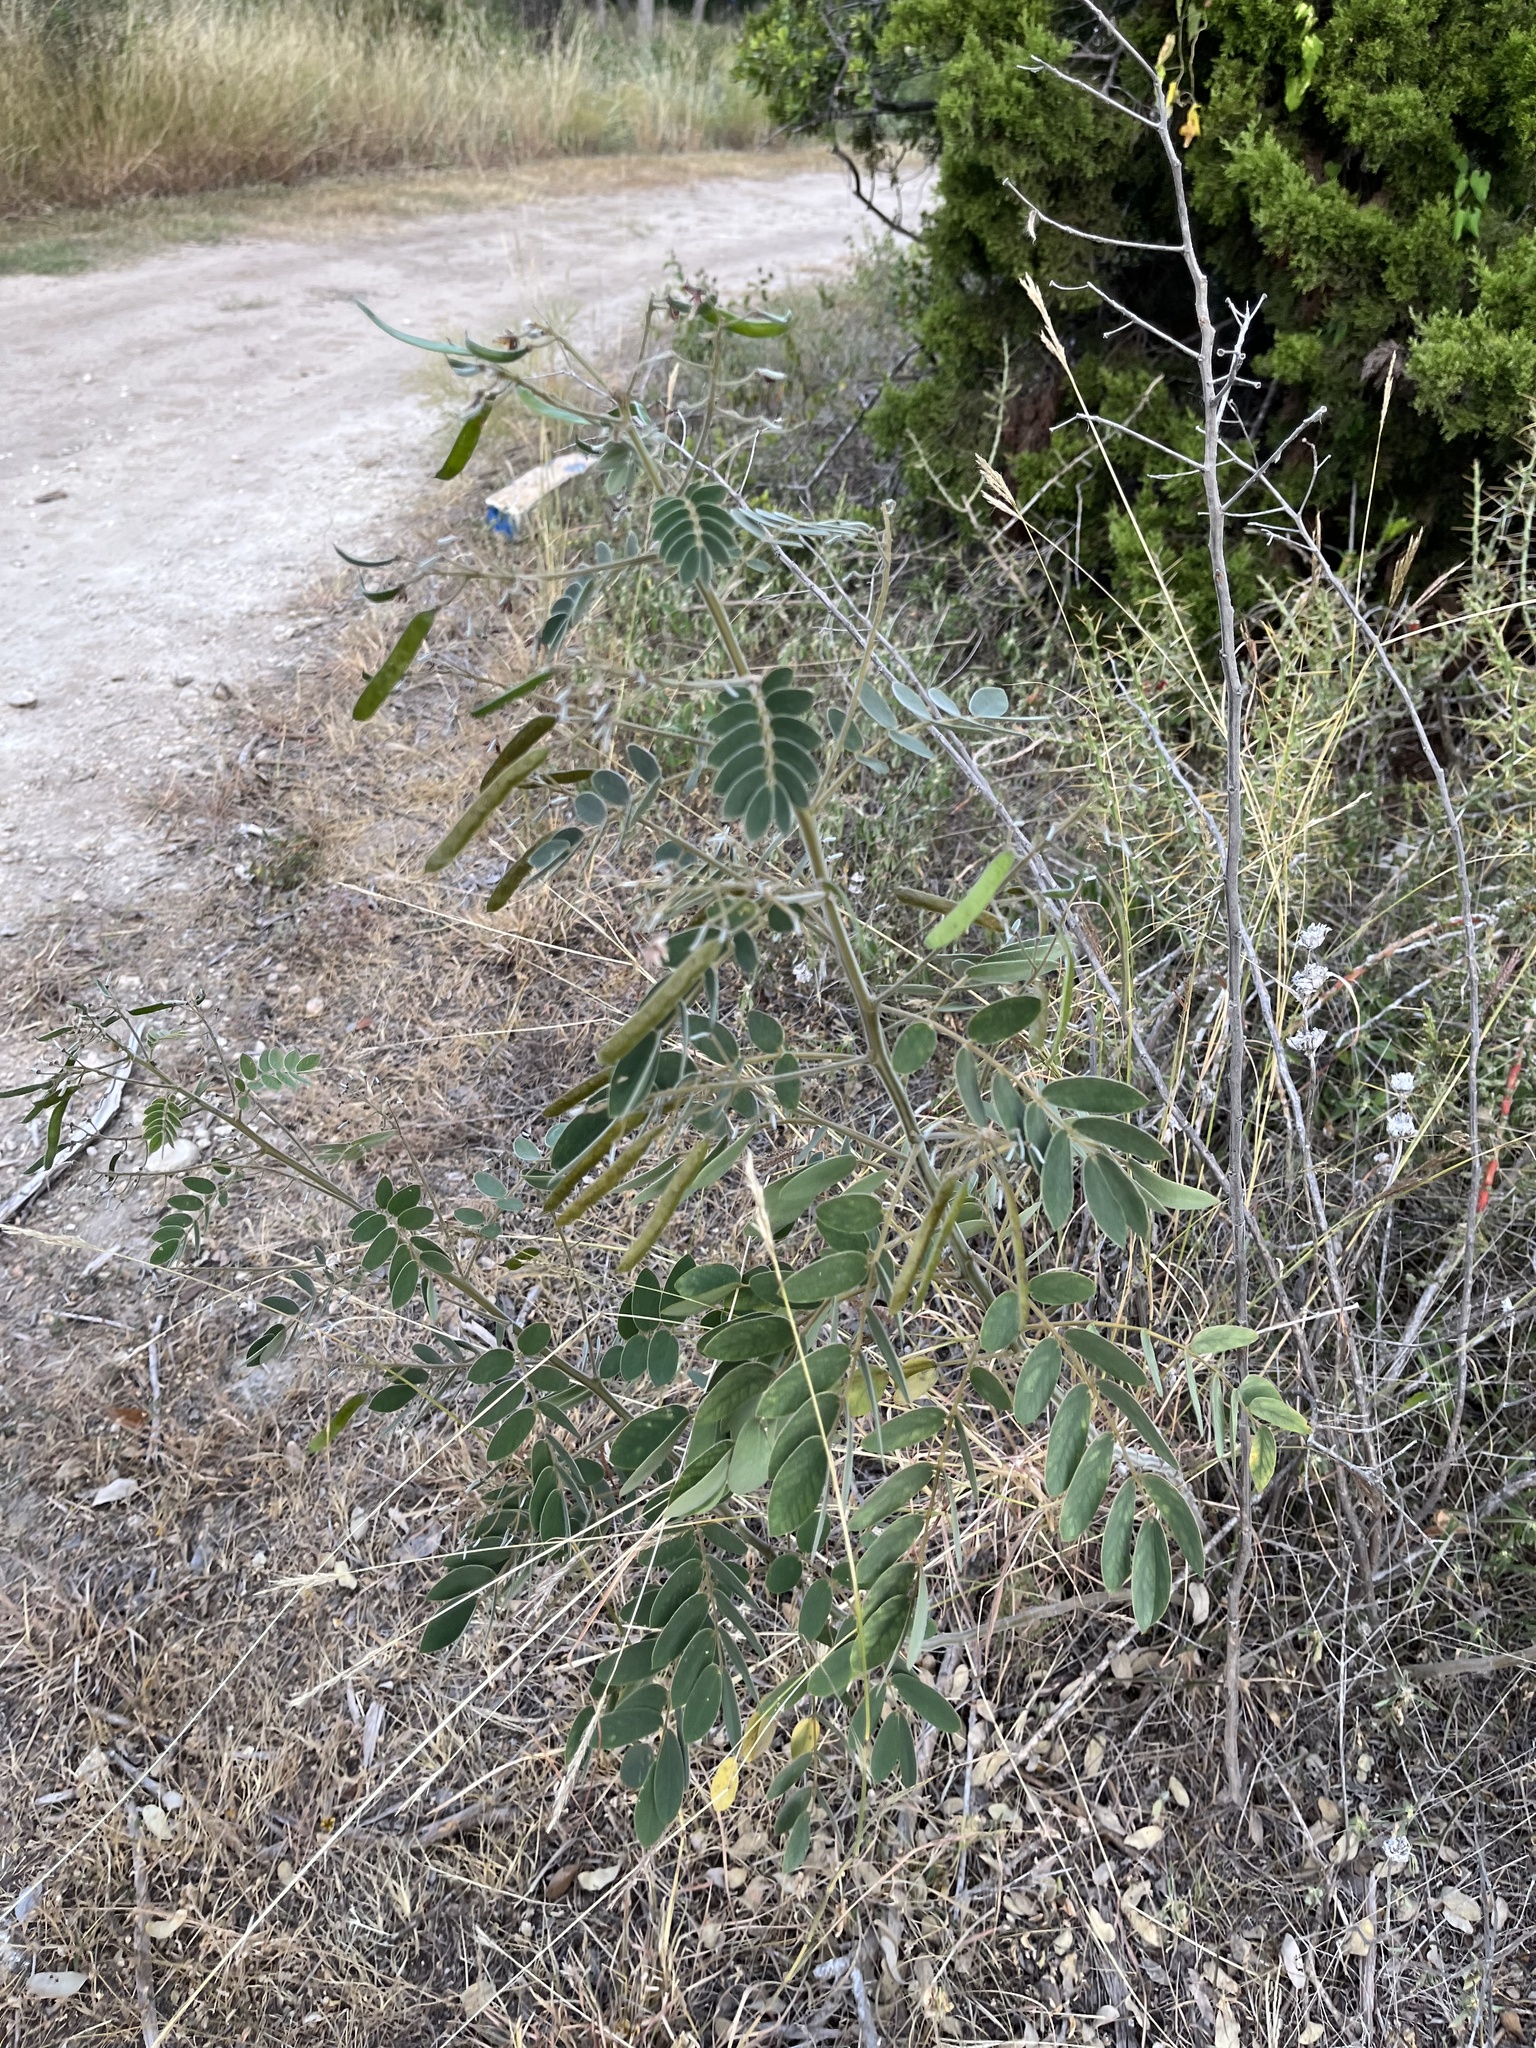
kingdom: Plantae
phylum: Tracheophyta
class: Magnoliopsida
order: Fabales
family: Fabaceae
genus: Senna
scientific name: Senna lindheimeriana
